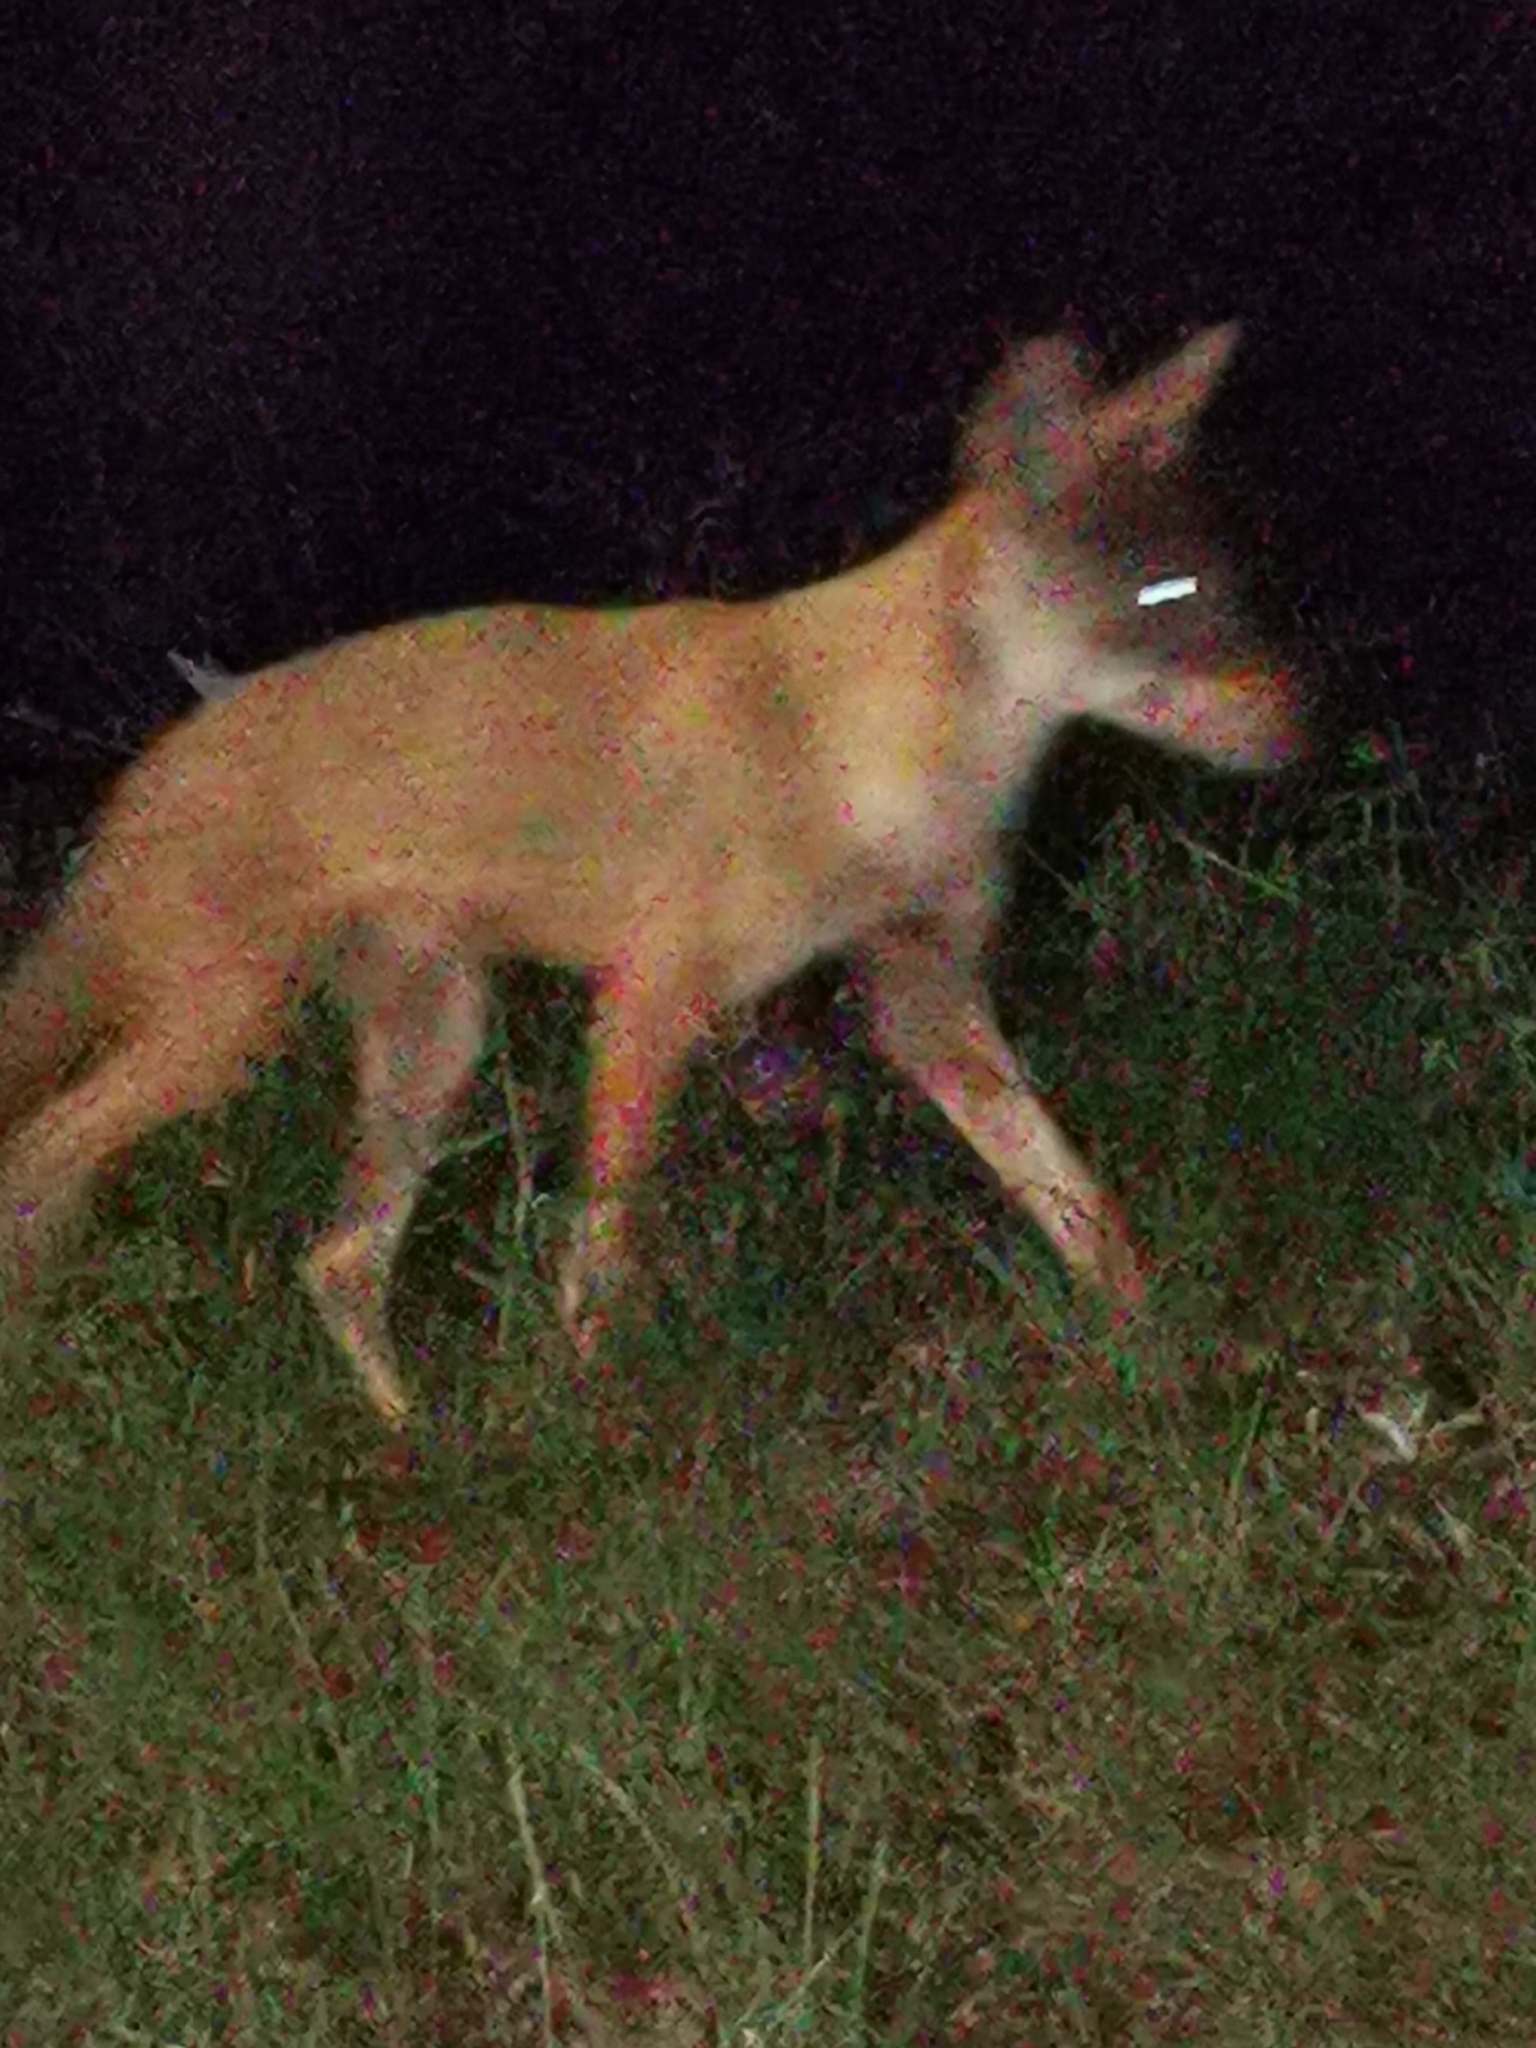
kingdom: Animalia
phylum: Chordata
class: Mammalia
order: Carnivora
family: Canidae
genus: Canis
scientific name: Canis latrans
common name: Coyote
